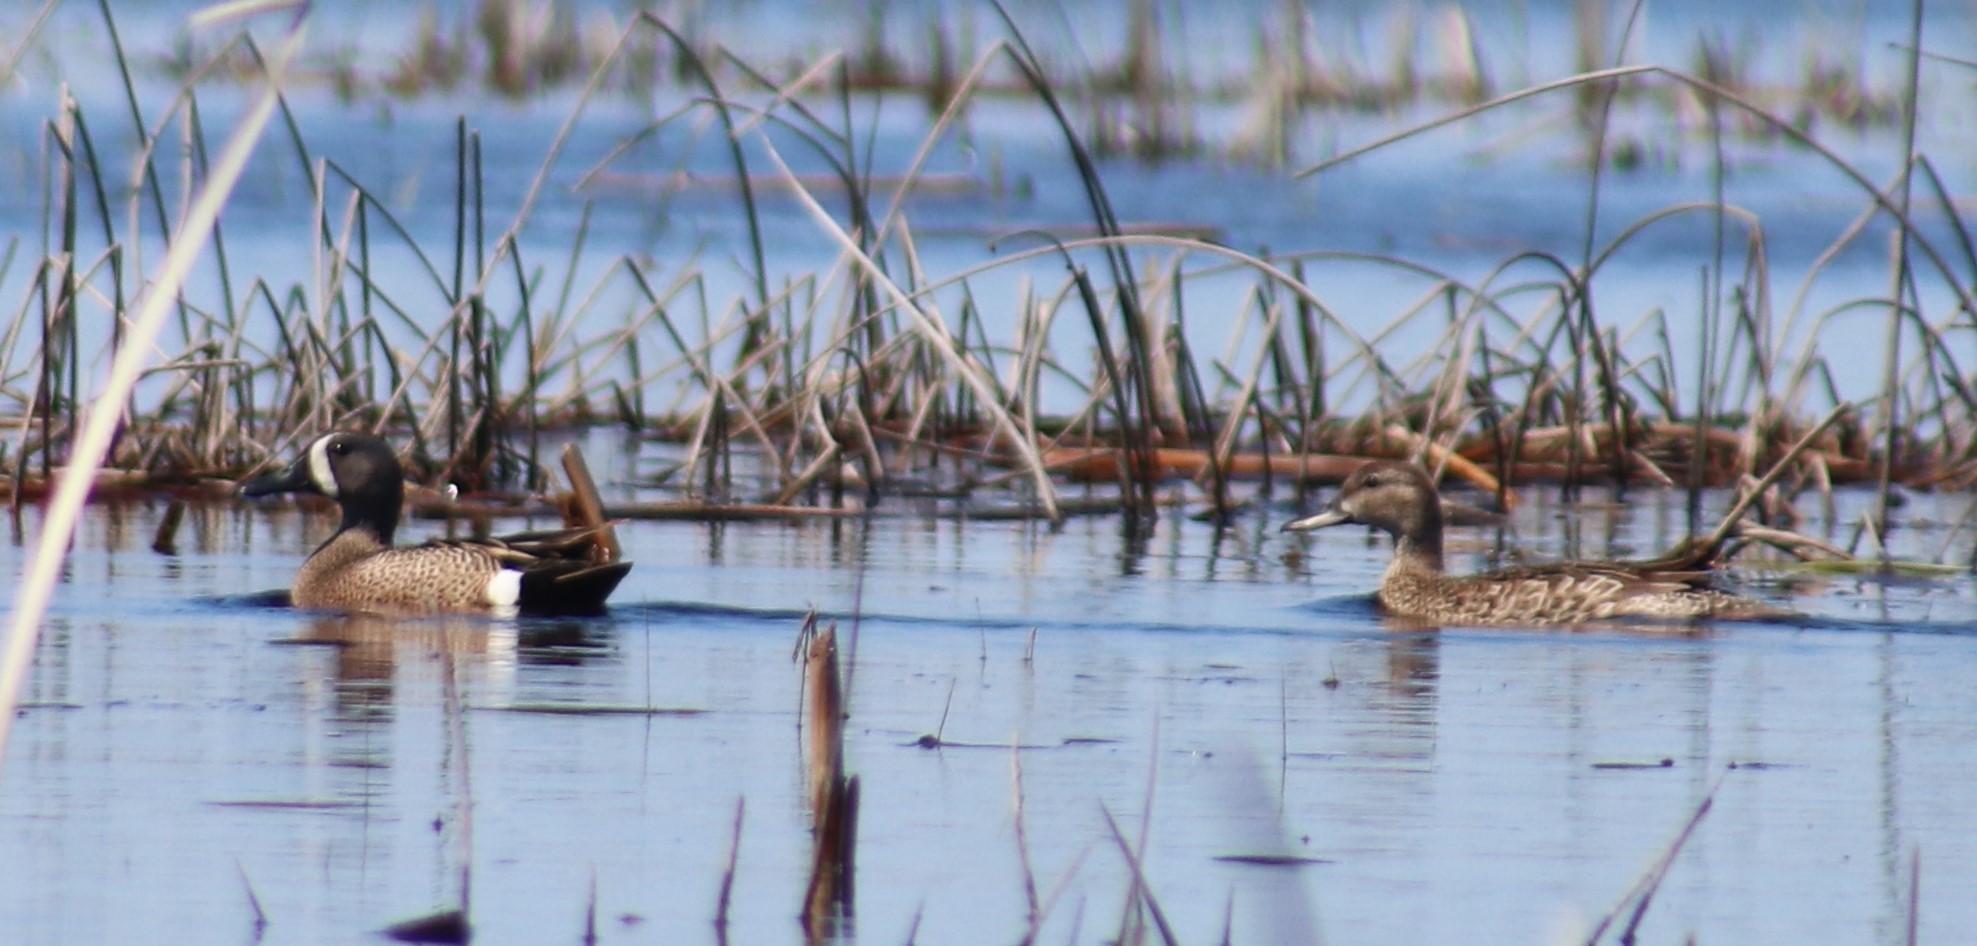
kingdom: Animalia
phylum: Chordata
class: Aves
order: Anseriformes
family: Anatidae
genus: Spatula
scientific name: Spatula discors
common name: Blue-winged teal
